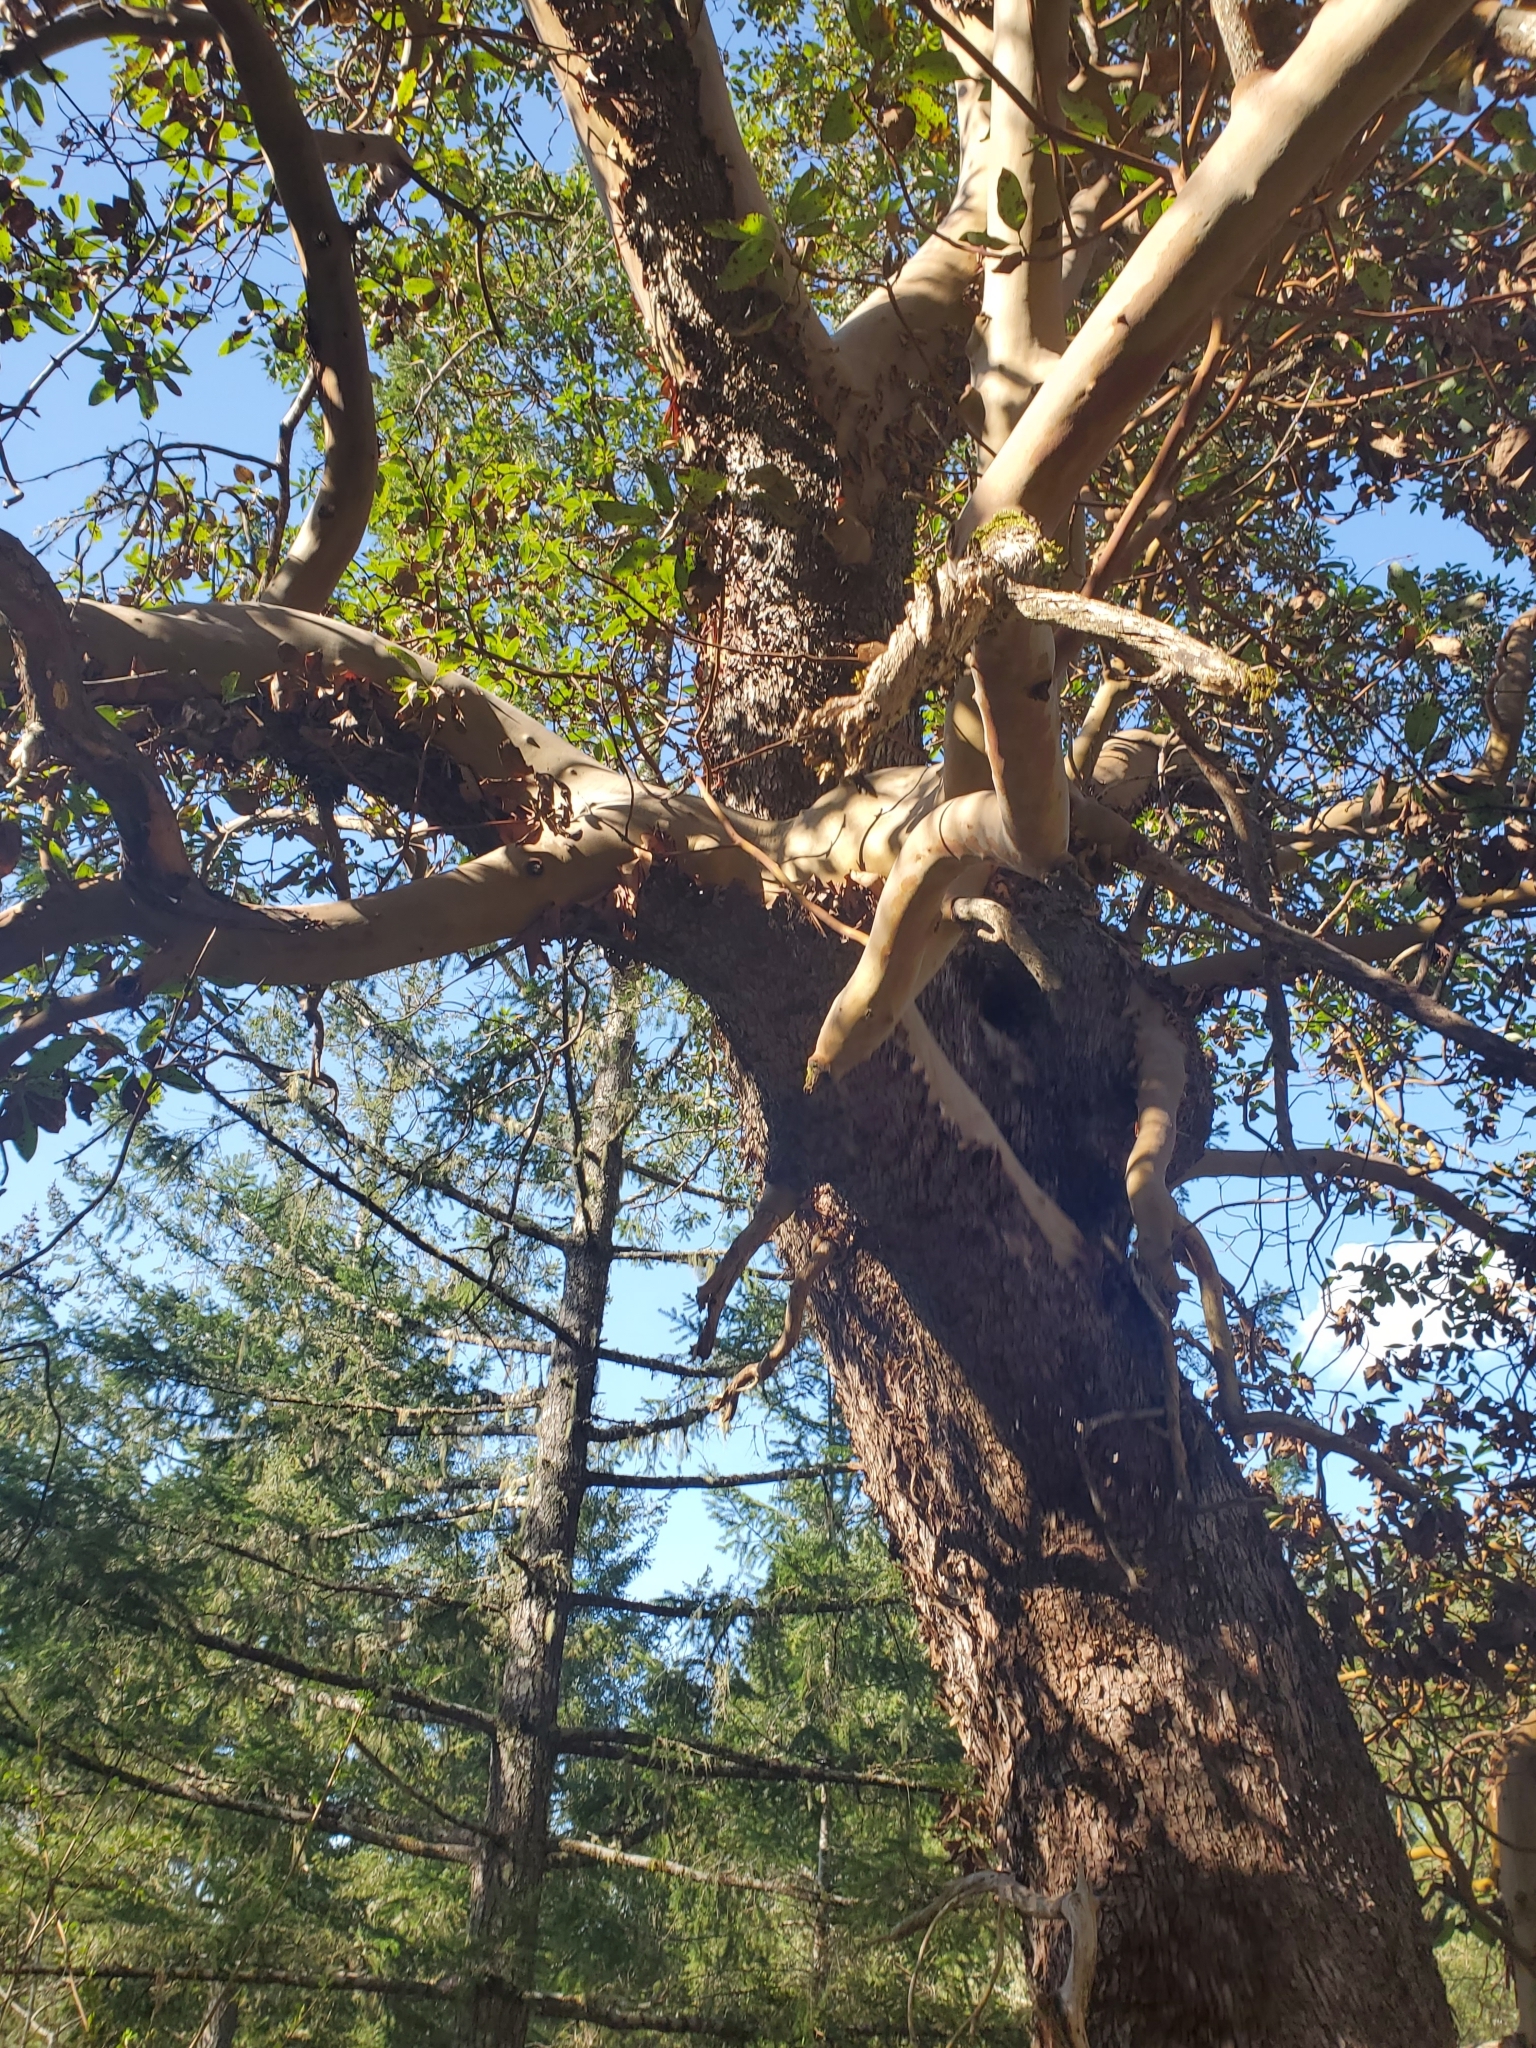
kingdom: Plantae
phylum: Tracheophyta
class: Magnoliopsida
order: Ericales
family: Ericaceae
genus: Arbutus
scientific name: Arbutus menziesii
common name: Pacific madrone
